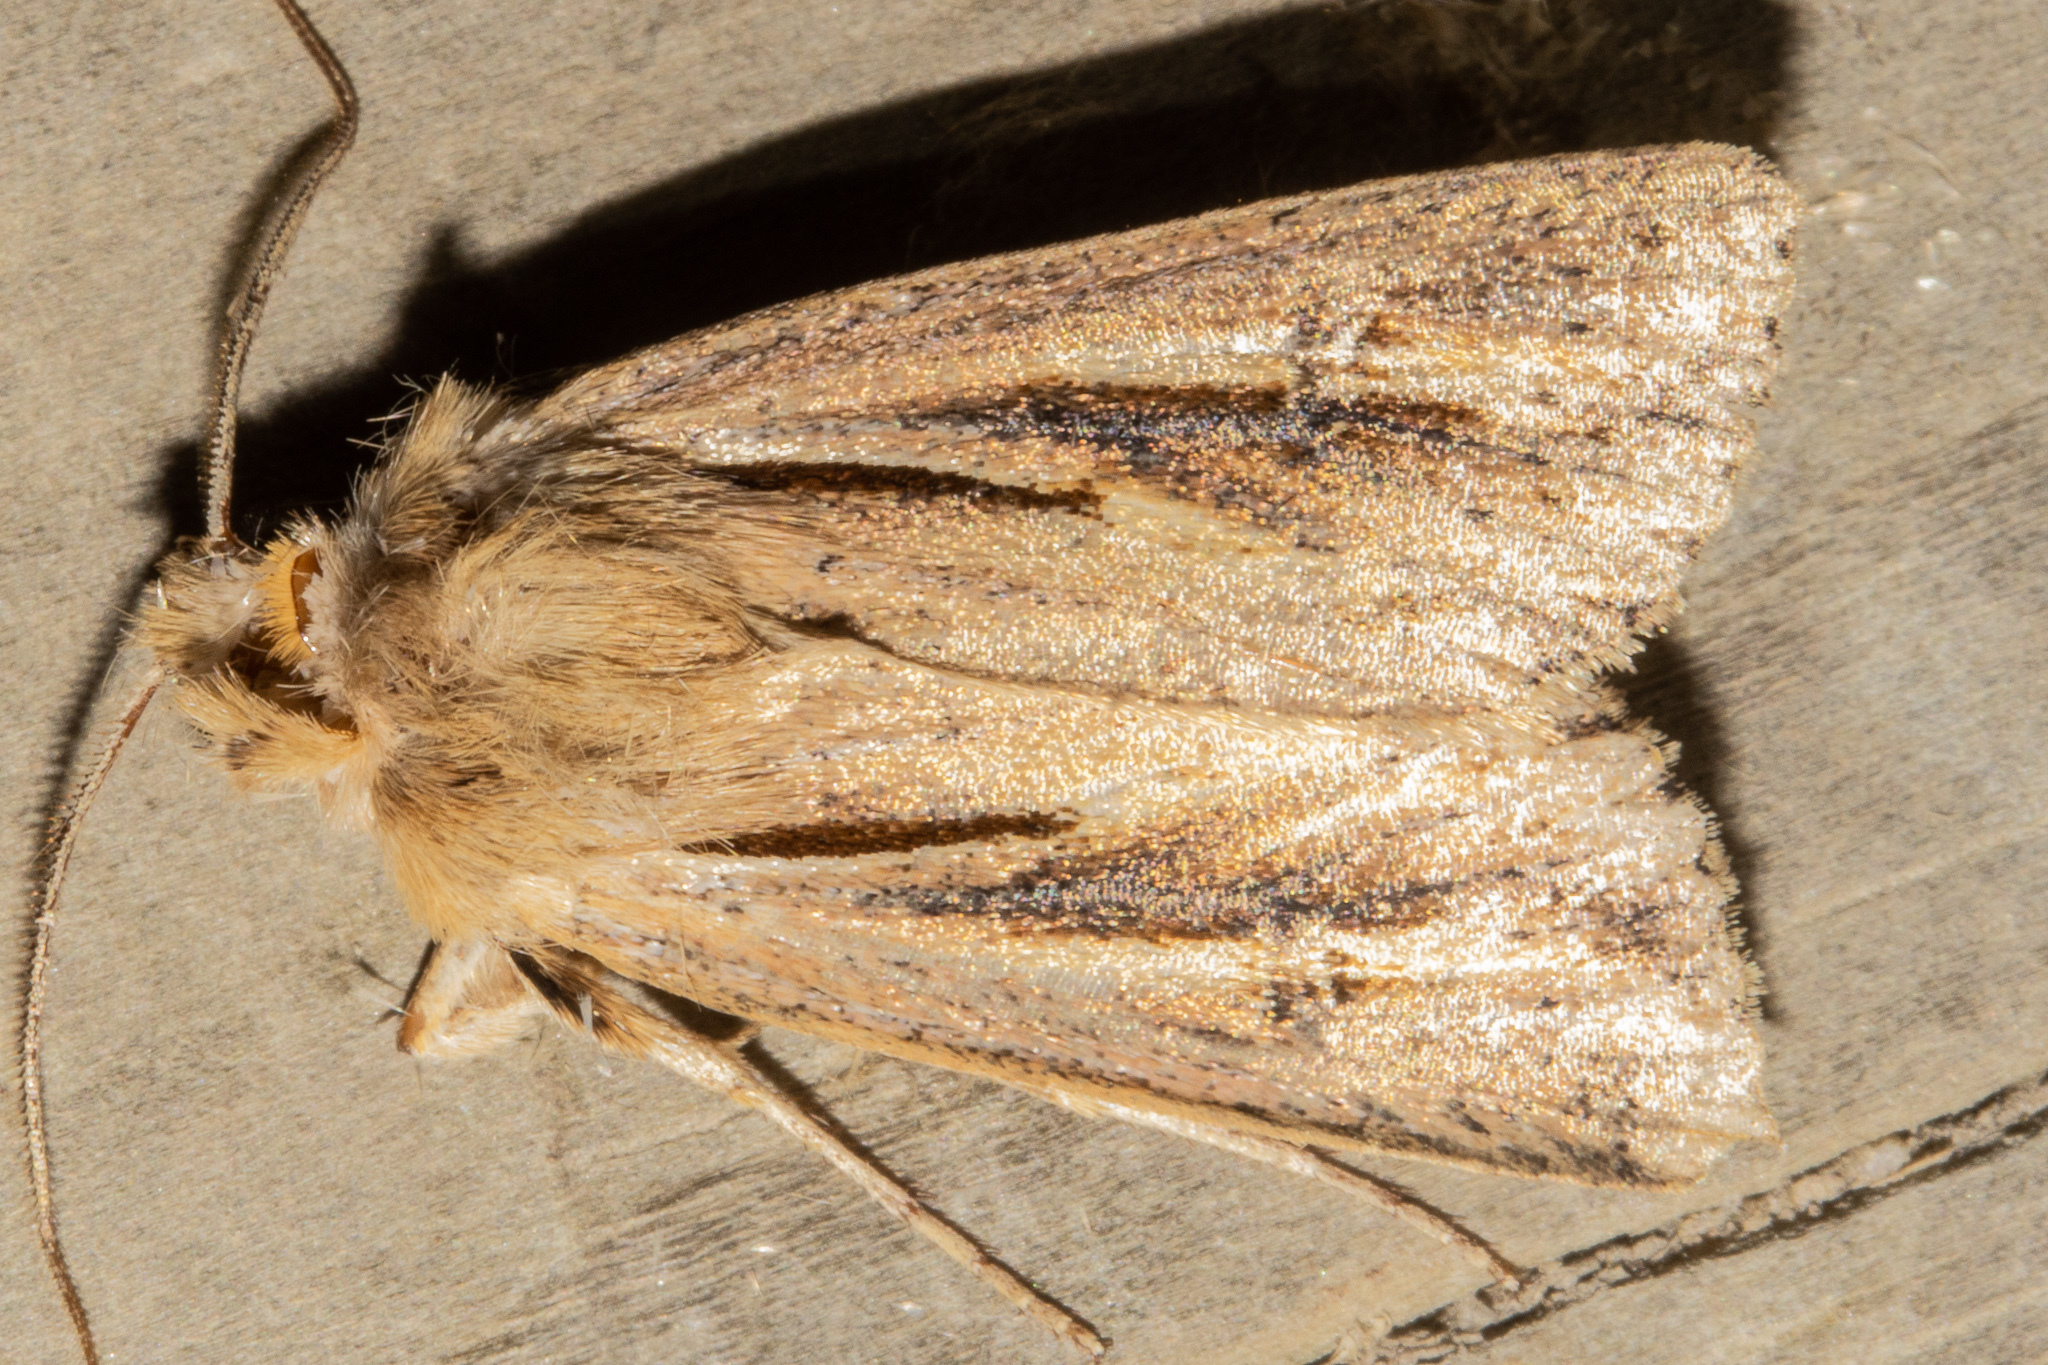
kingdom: Animalia
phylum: Arthropoda
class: Insecta
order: Lepidoptera
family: Noctuidae
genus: Ichneutica
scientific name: Ichneutica propria
